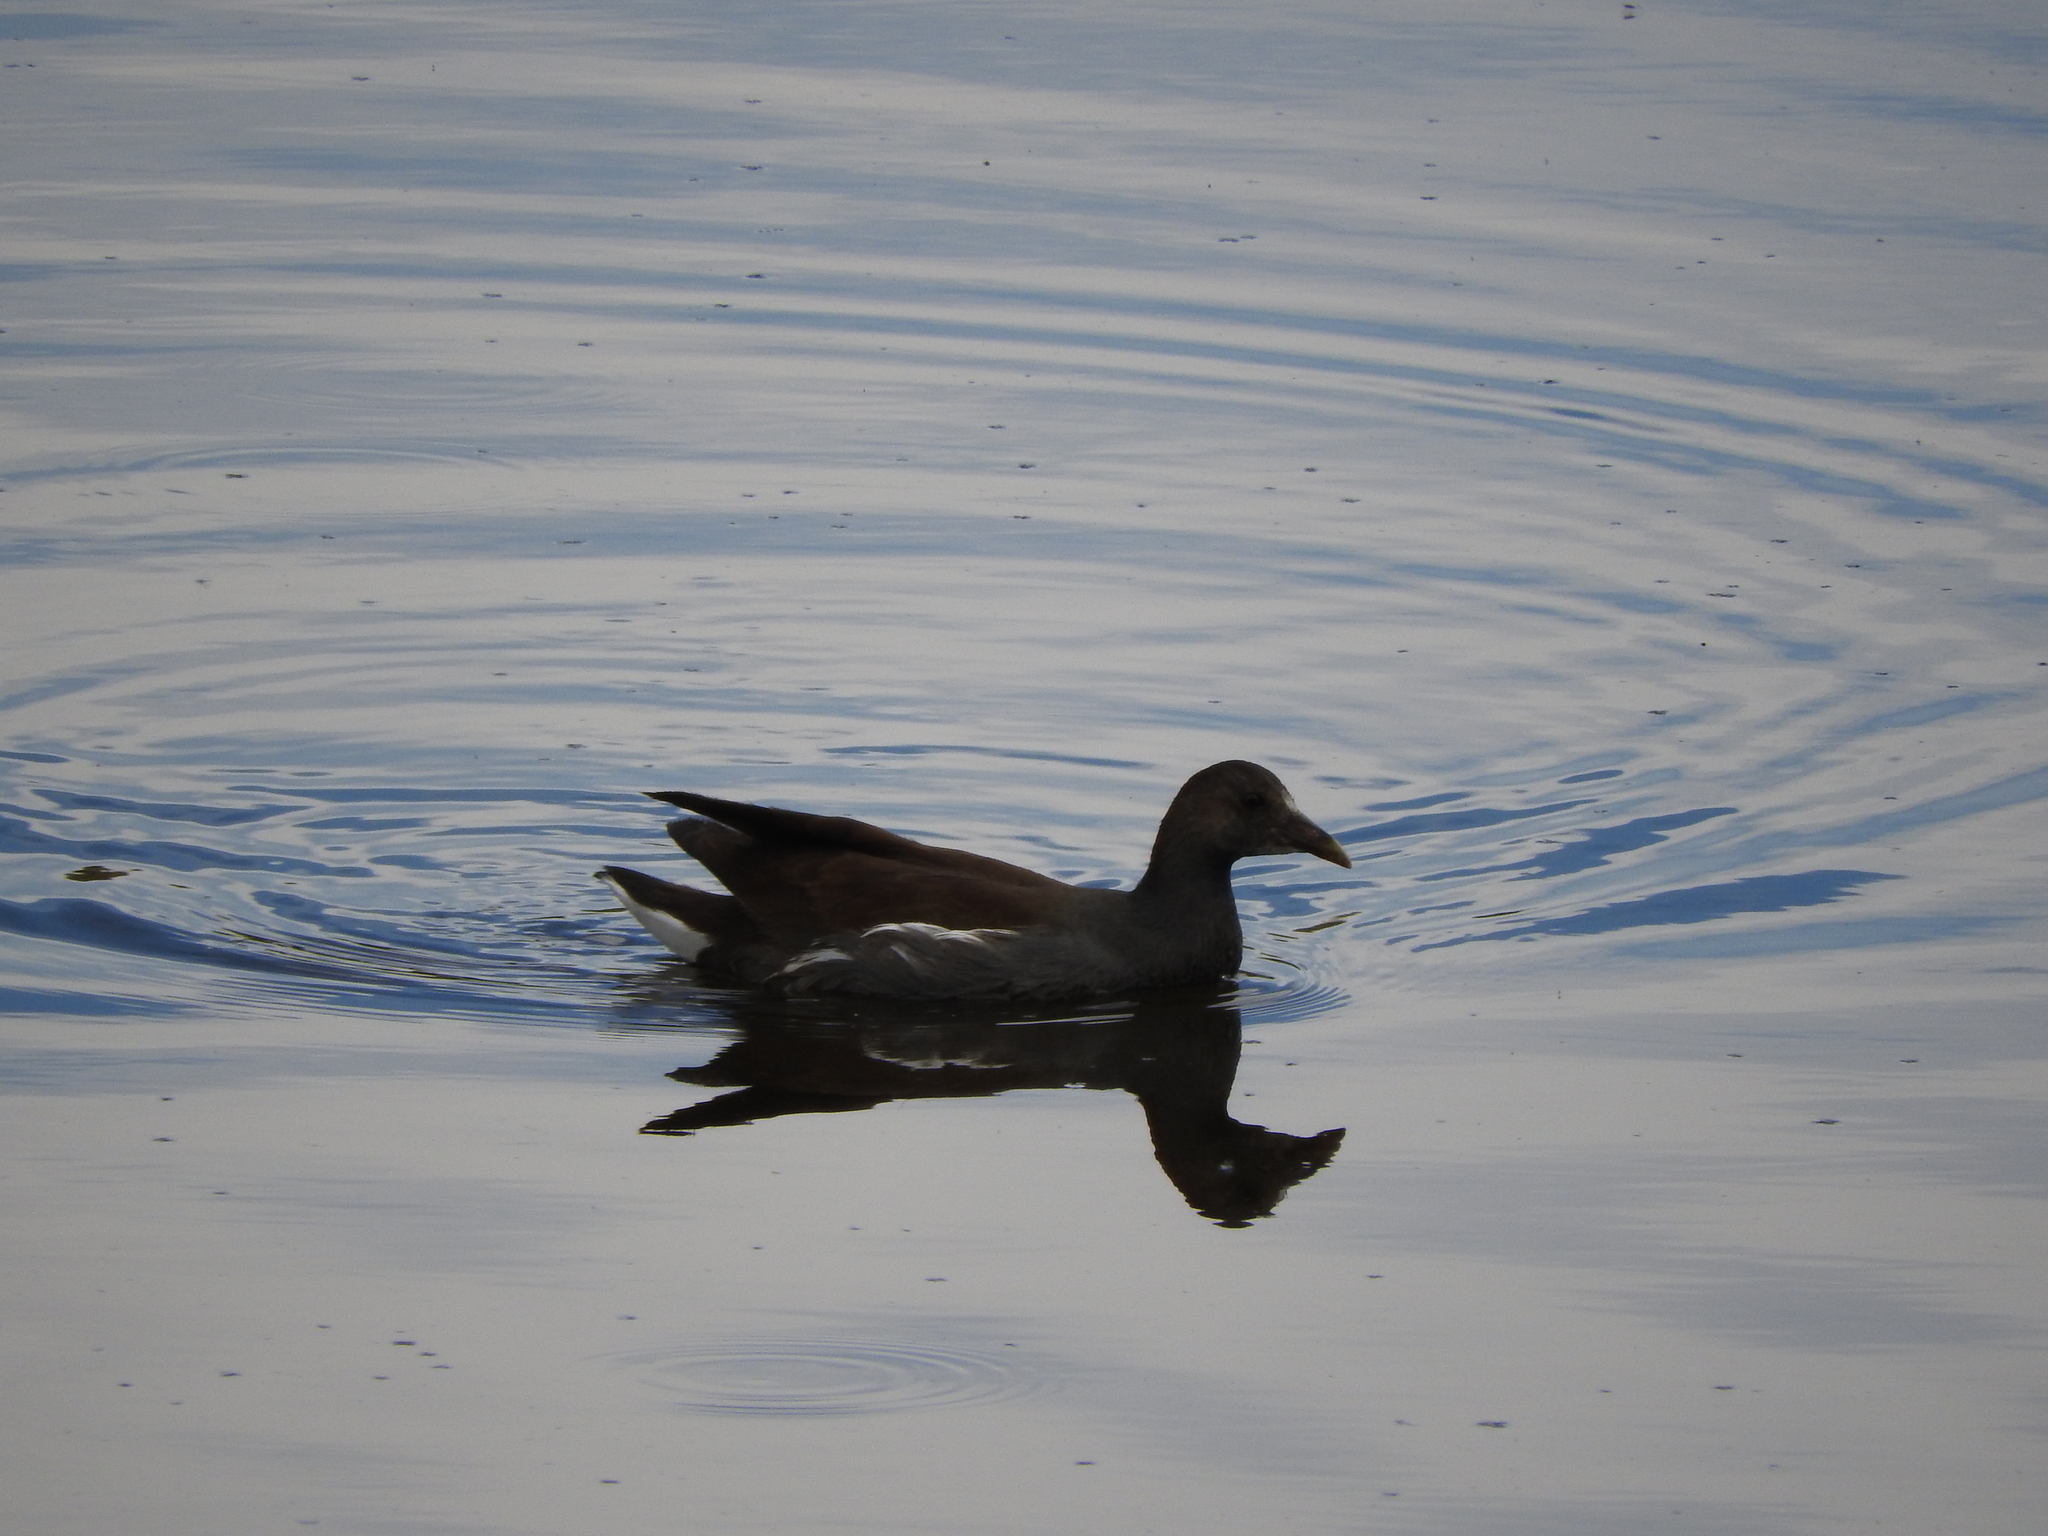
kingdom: Animalia
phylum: Chordata
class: Aves
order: Gruiformes
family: Rallidae
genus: Gallinula
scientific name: Gallinula chloropus
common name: Common moorhen
